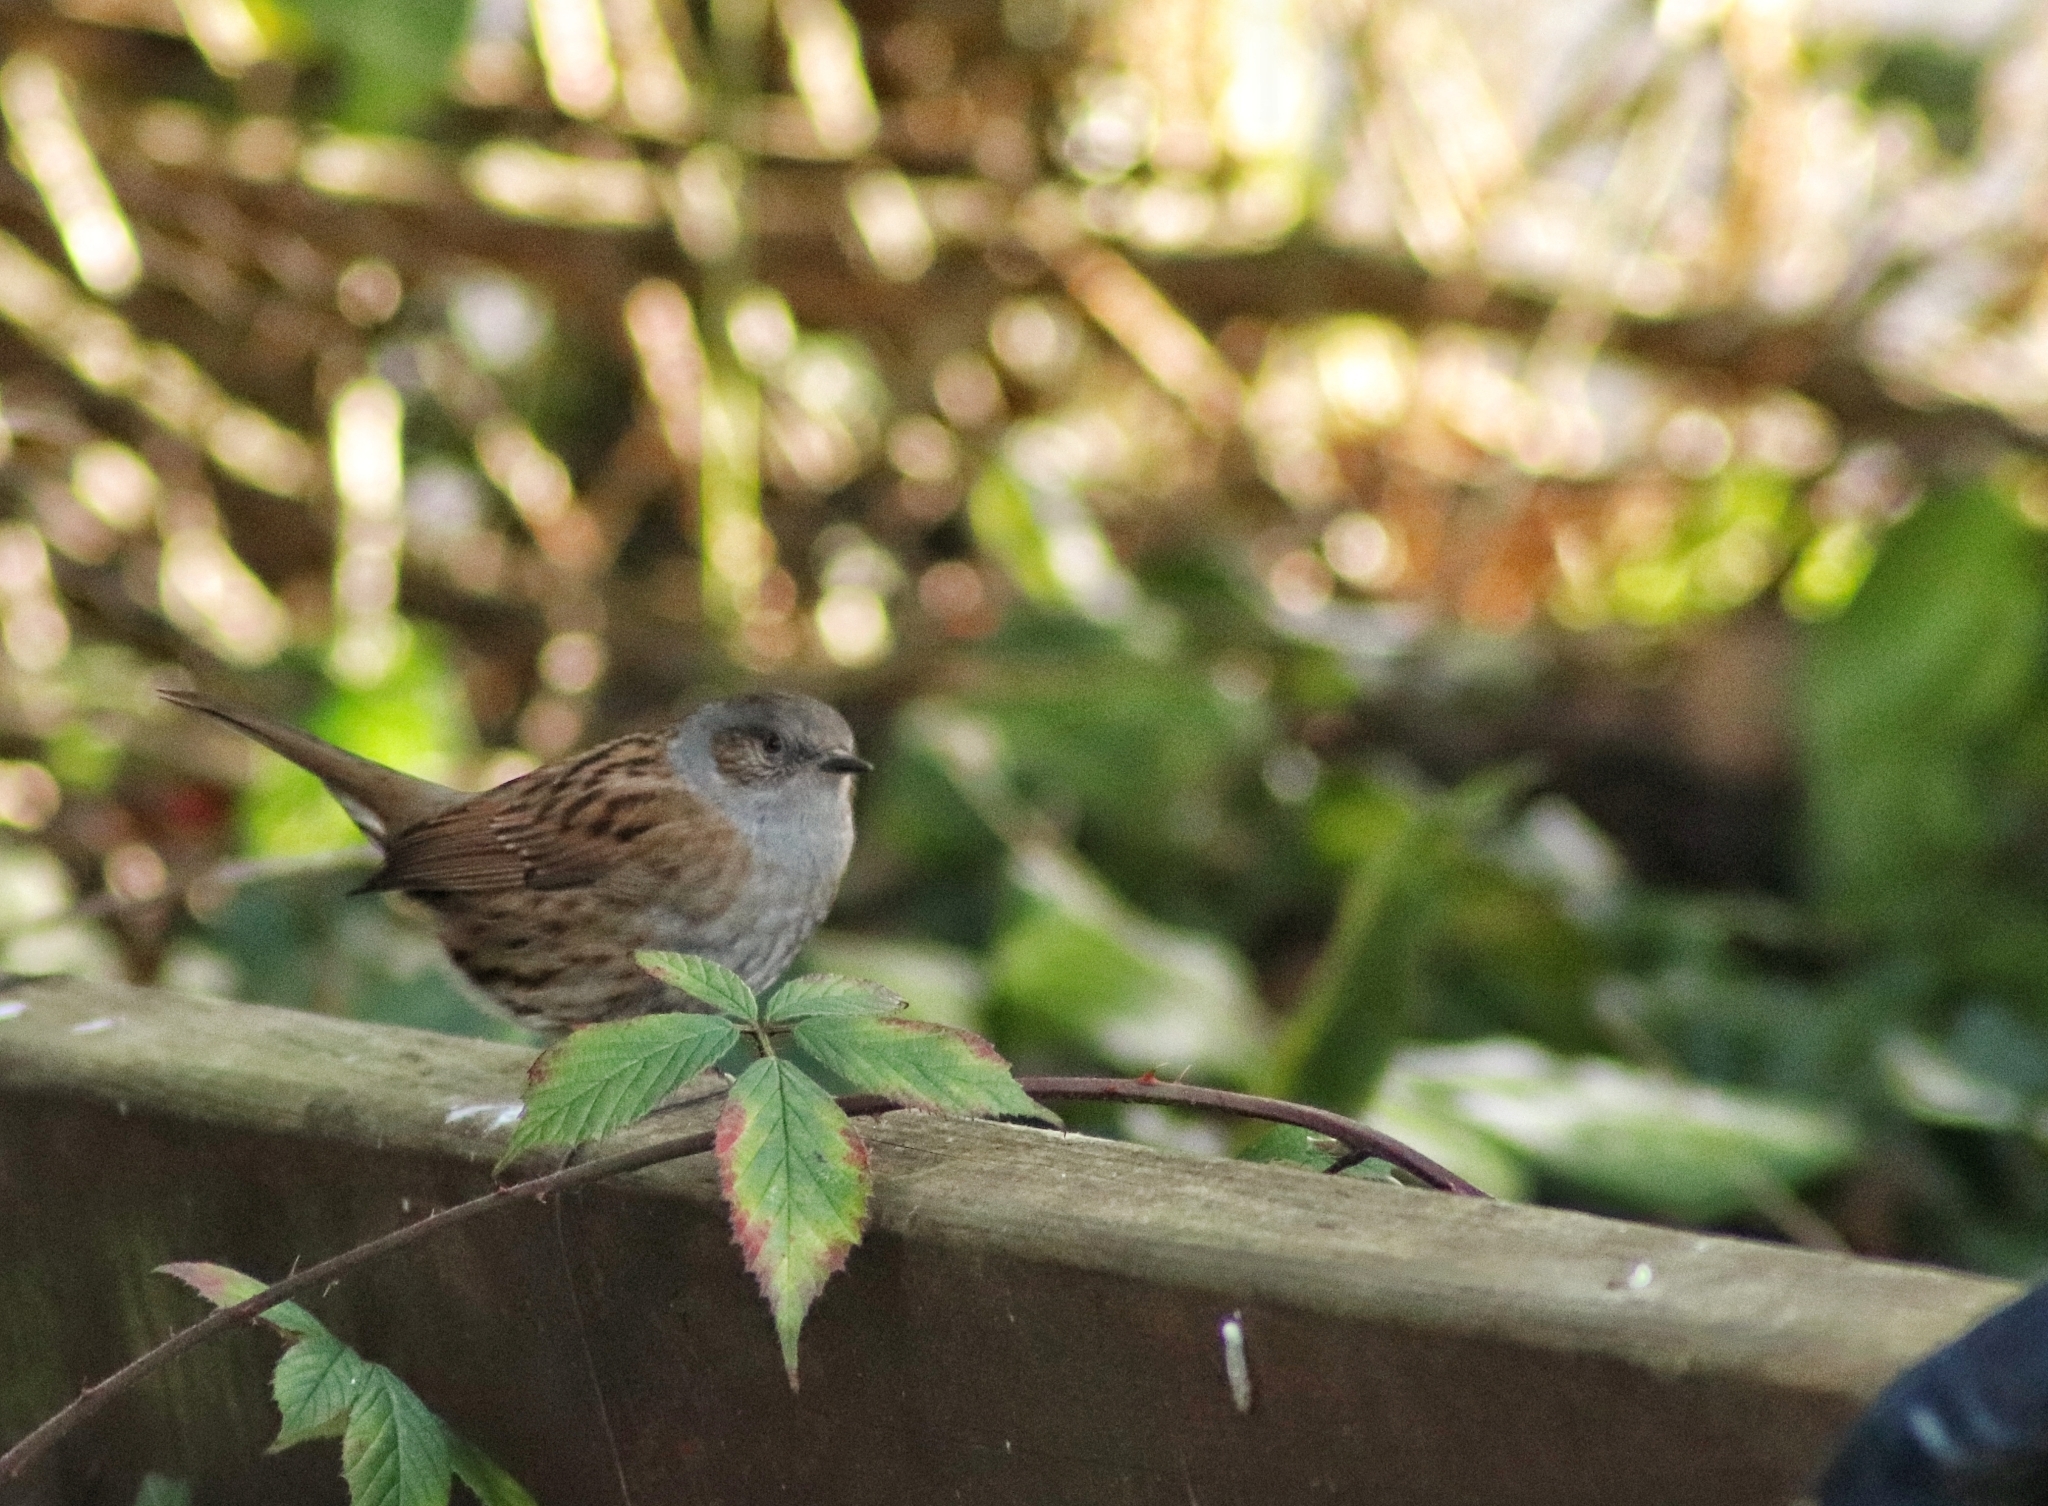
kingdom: Animalia
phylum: Chordata
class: Aves
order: Passeriformes
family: Prunellidae
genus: Prunella
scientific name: Prunella modularis
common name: Dunnock
